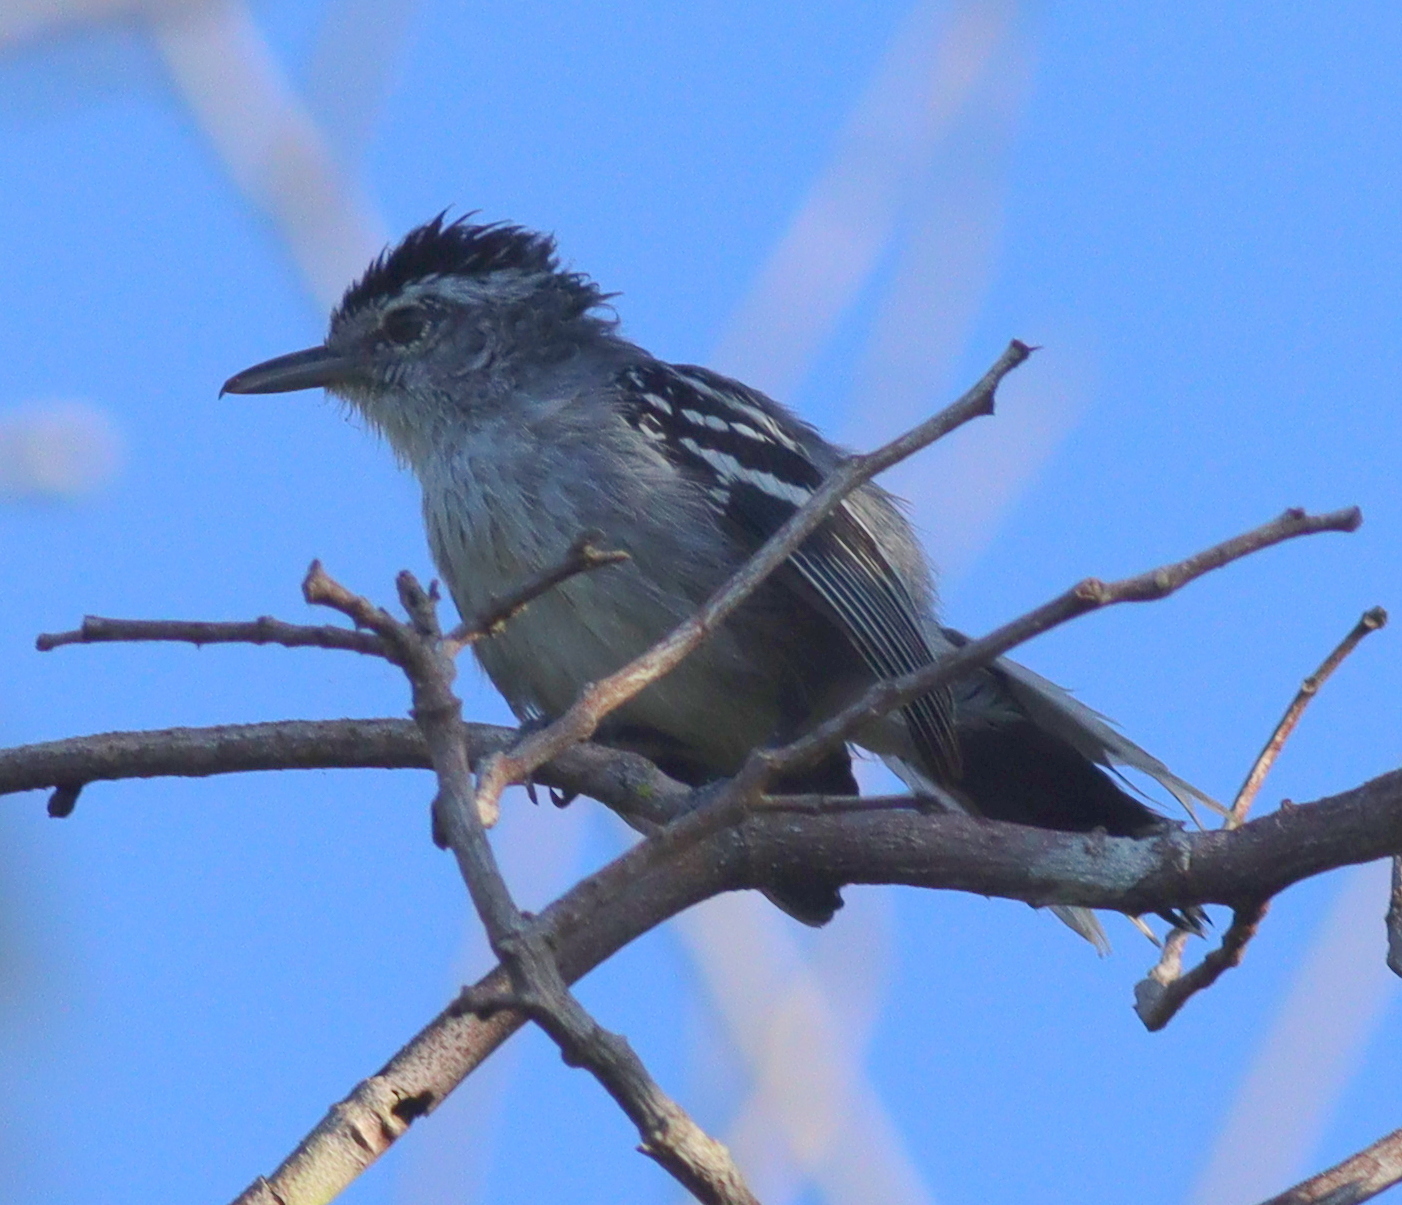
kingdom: Animalia
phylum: Chordata
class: Aves
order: Passeriformes
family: Thamnophilidae
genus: Herpsilochmus
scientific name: Herpsilochmus longirostris
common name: Large-billed antwren
